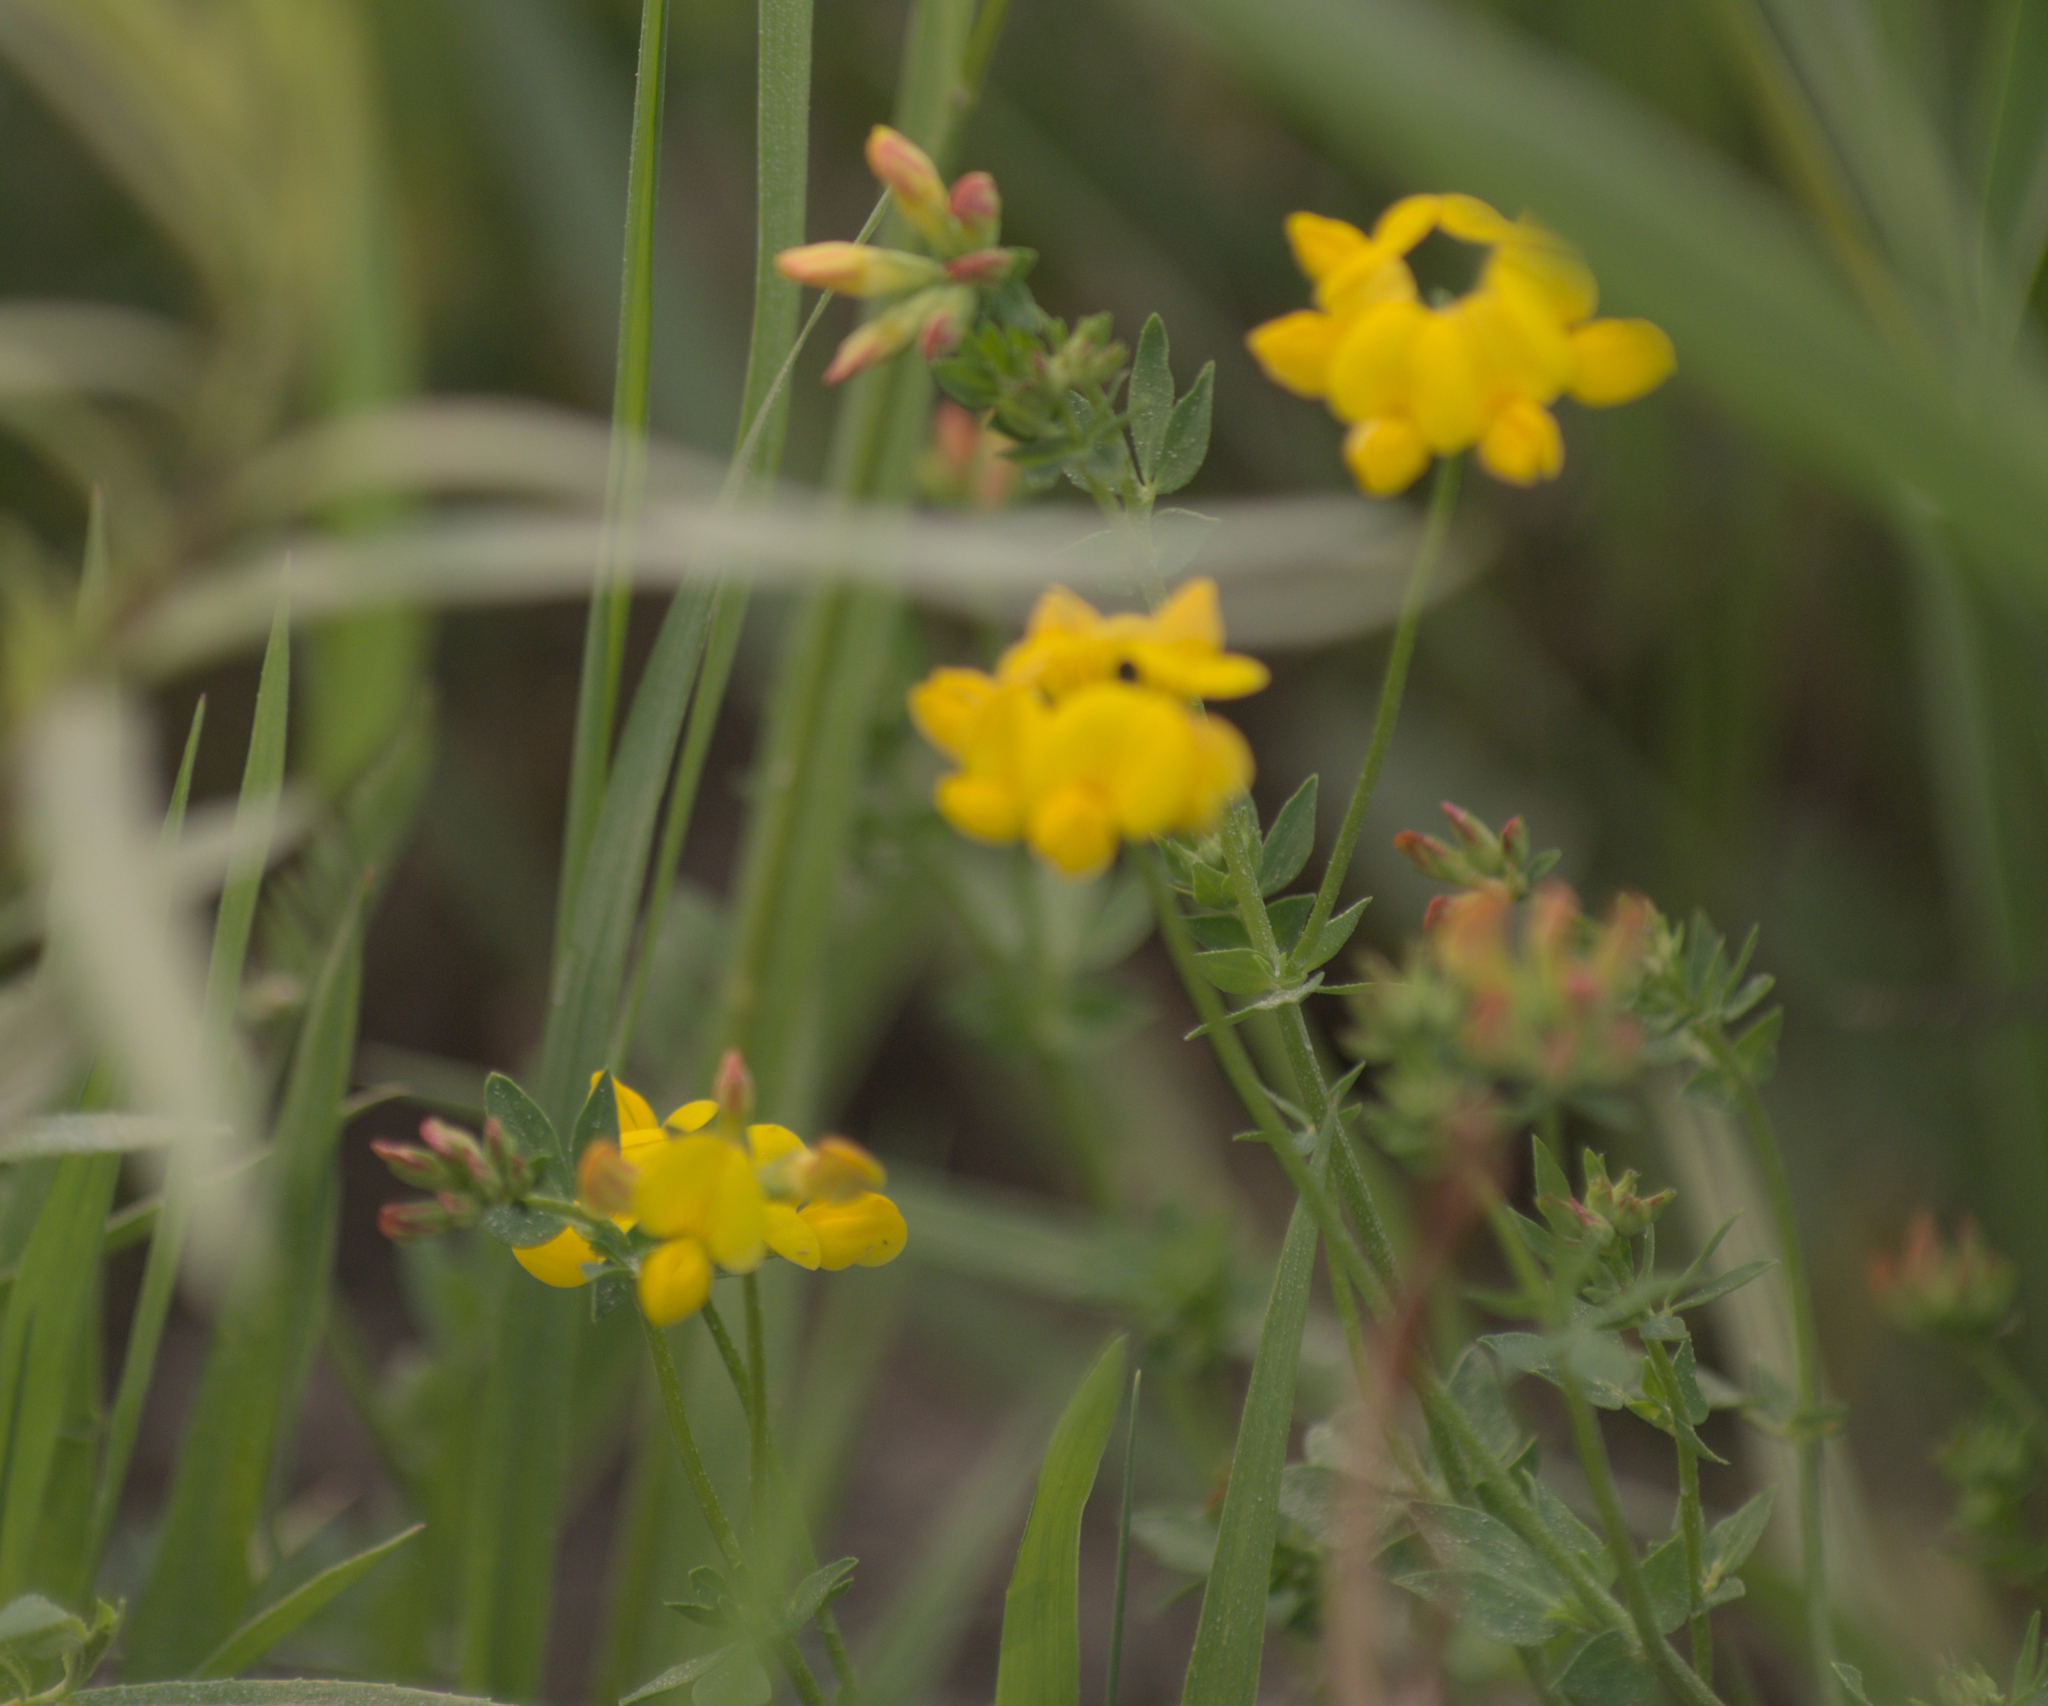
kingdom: Plantae
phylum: Tracheophyta
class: Magnoliopsida
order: Fabales
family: Fabaceae
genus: Lotus
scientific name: Lotus corniculatus
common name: Common bird's-foot-trefoil
